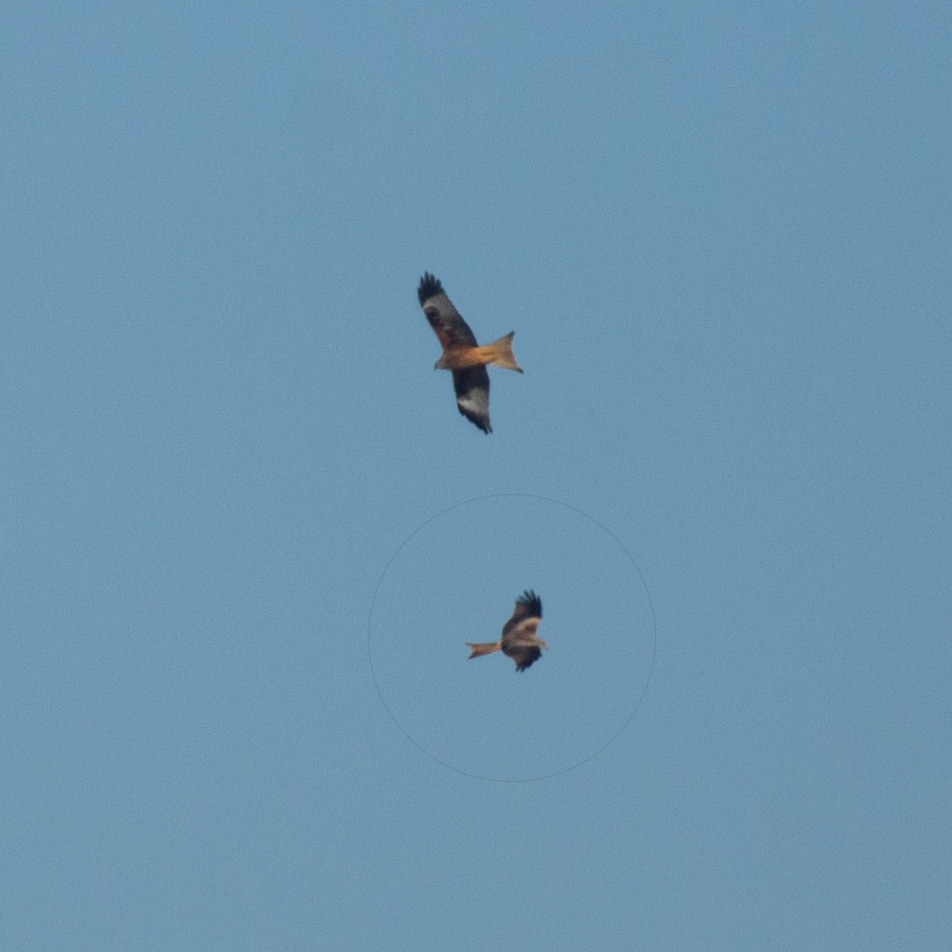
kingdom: Animalia
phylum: Chordata
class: Aves
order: Accipitriformes
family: Accipitridae
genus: Milvus
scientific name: Milvus milvus
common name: Red kite
